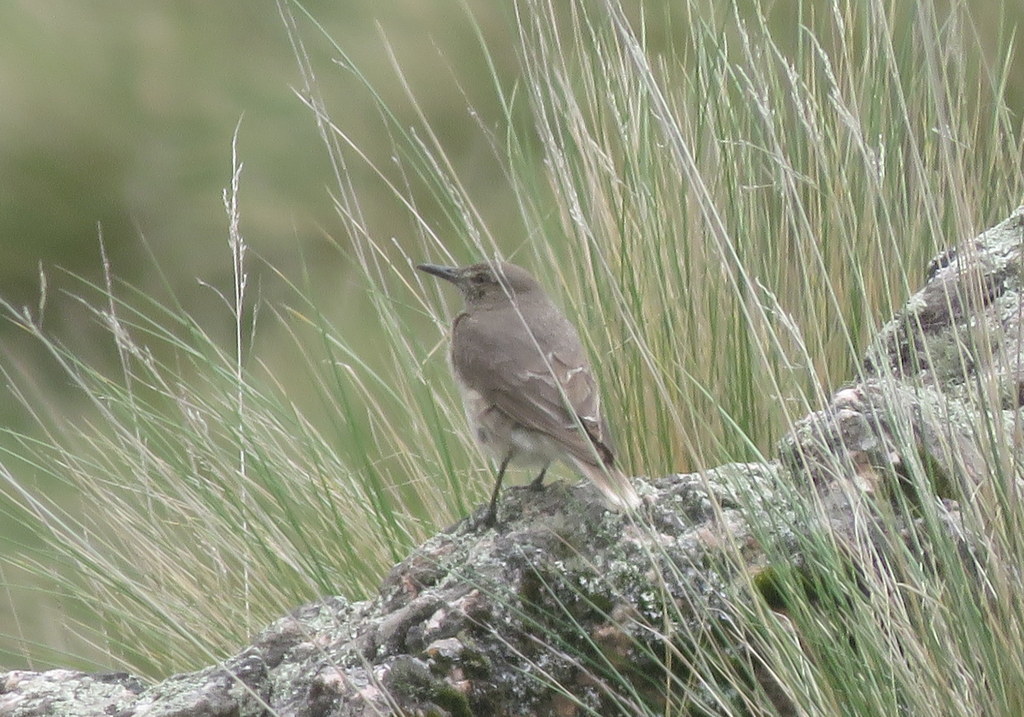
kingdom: Animalia
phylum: Chordata
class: Aves
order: Passeriformes
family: Tyrannidae
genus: Agriornis
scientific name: Agriornis montanus
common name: Black-billed shrike-tyrant
